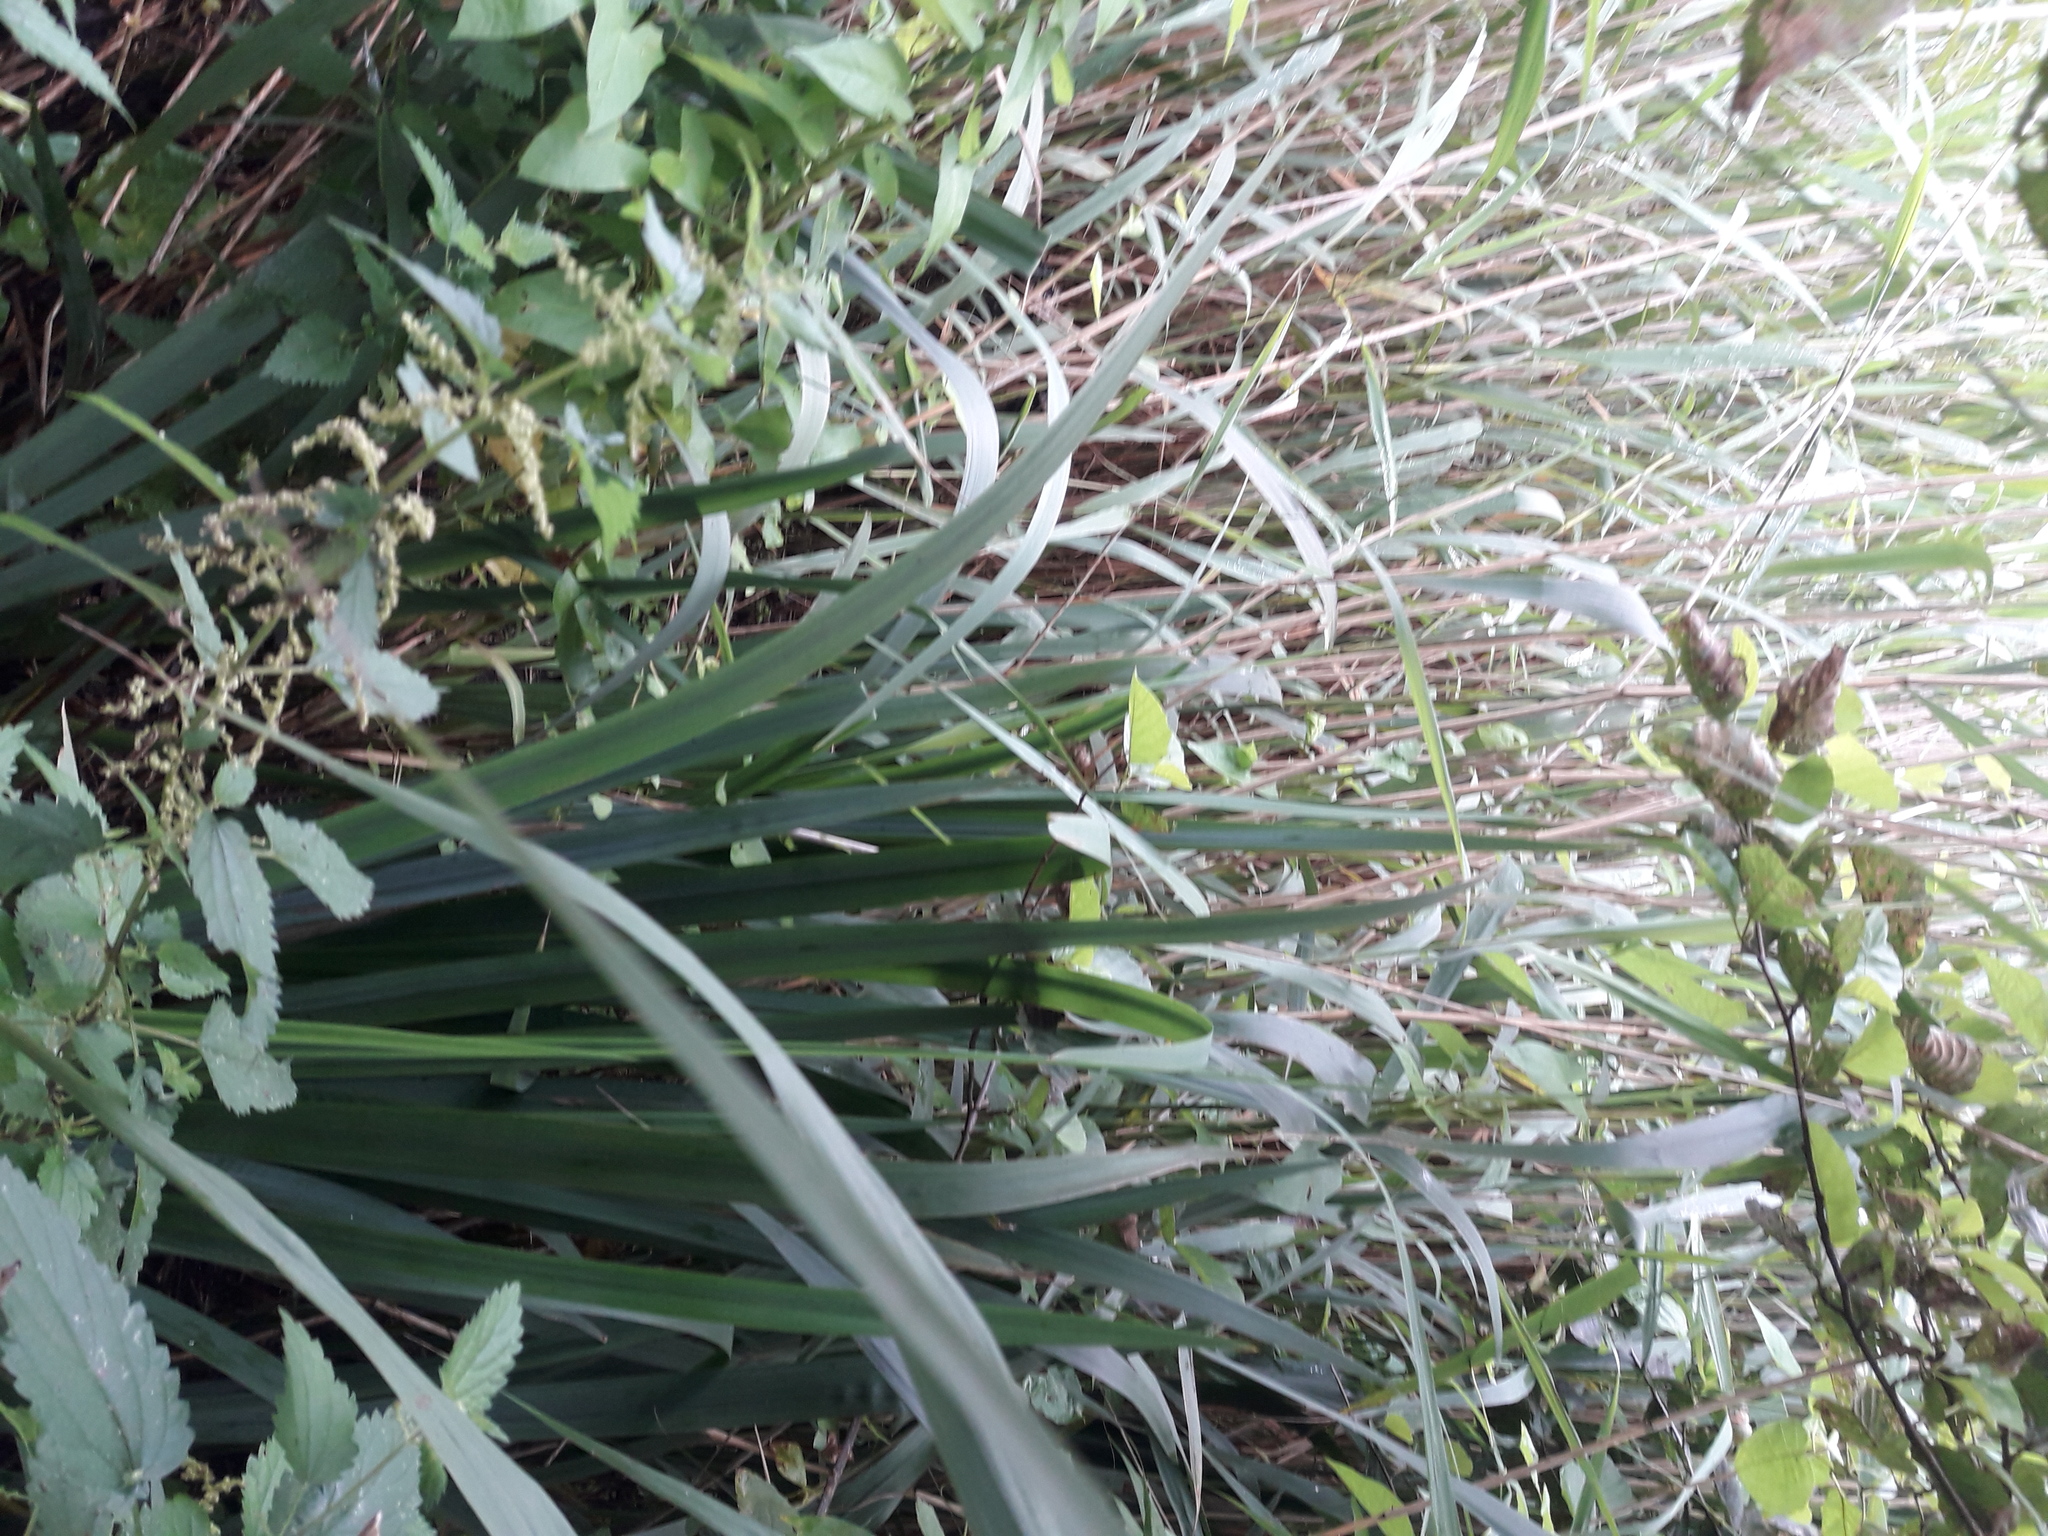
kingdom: Plantae
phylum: Tracheophyta
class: Liliopsida
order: Asparagales
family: Iridaceae
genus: Iris
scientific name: Iris pseudacorus
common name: Yellow flag
